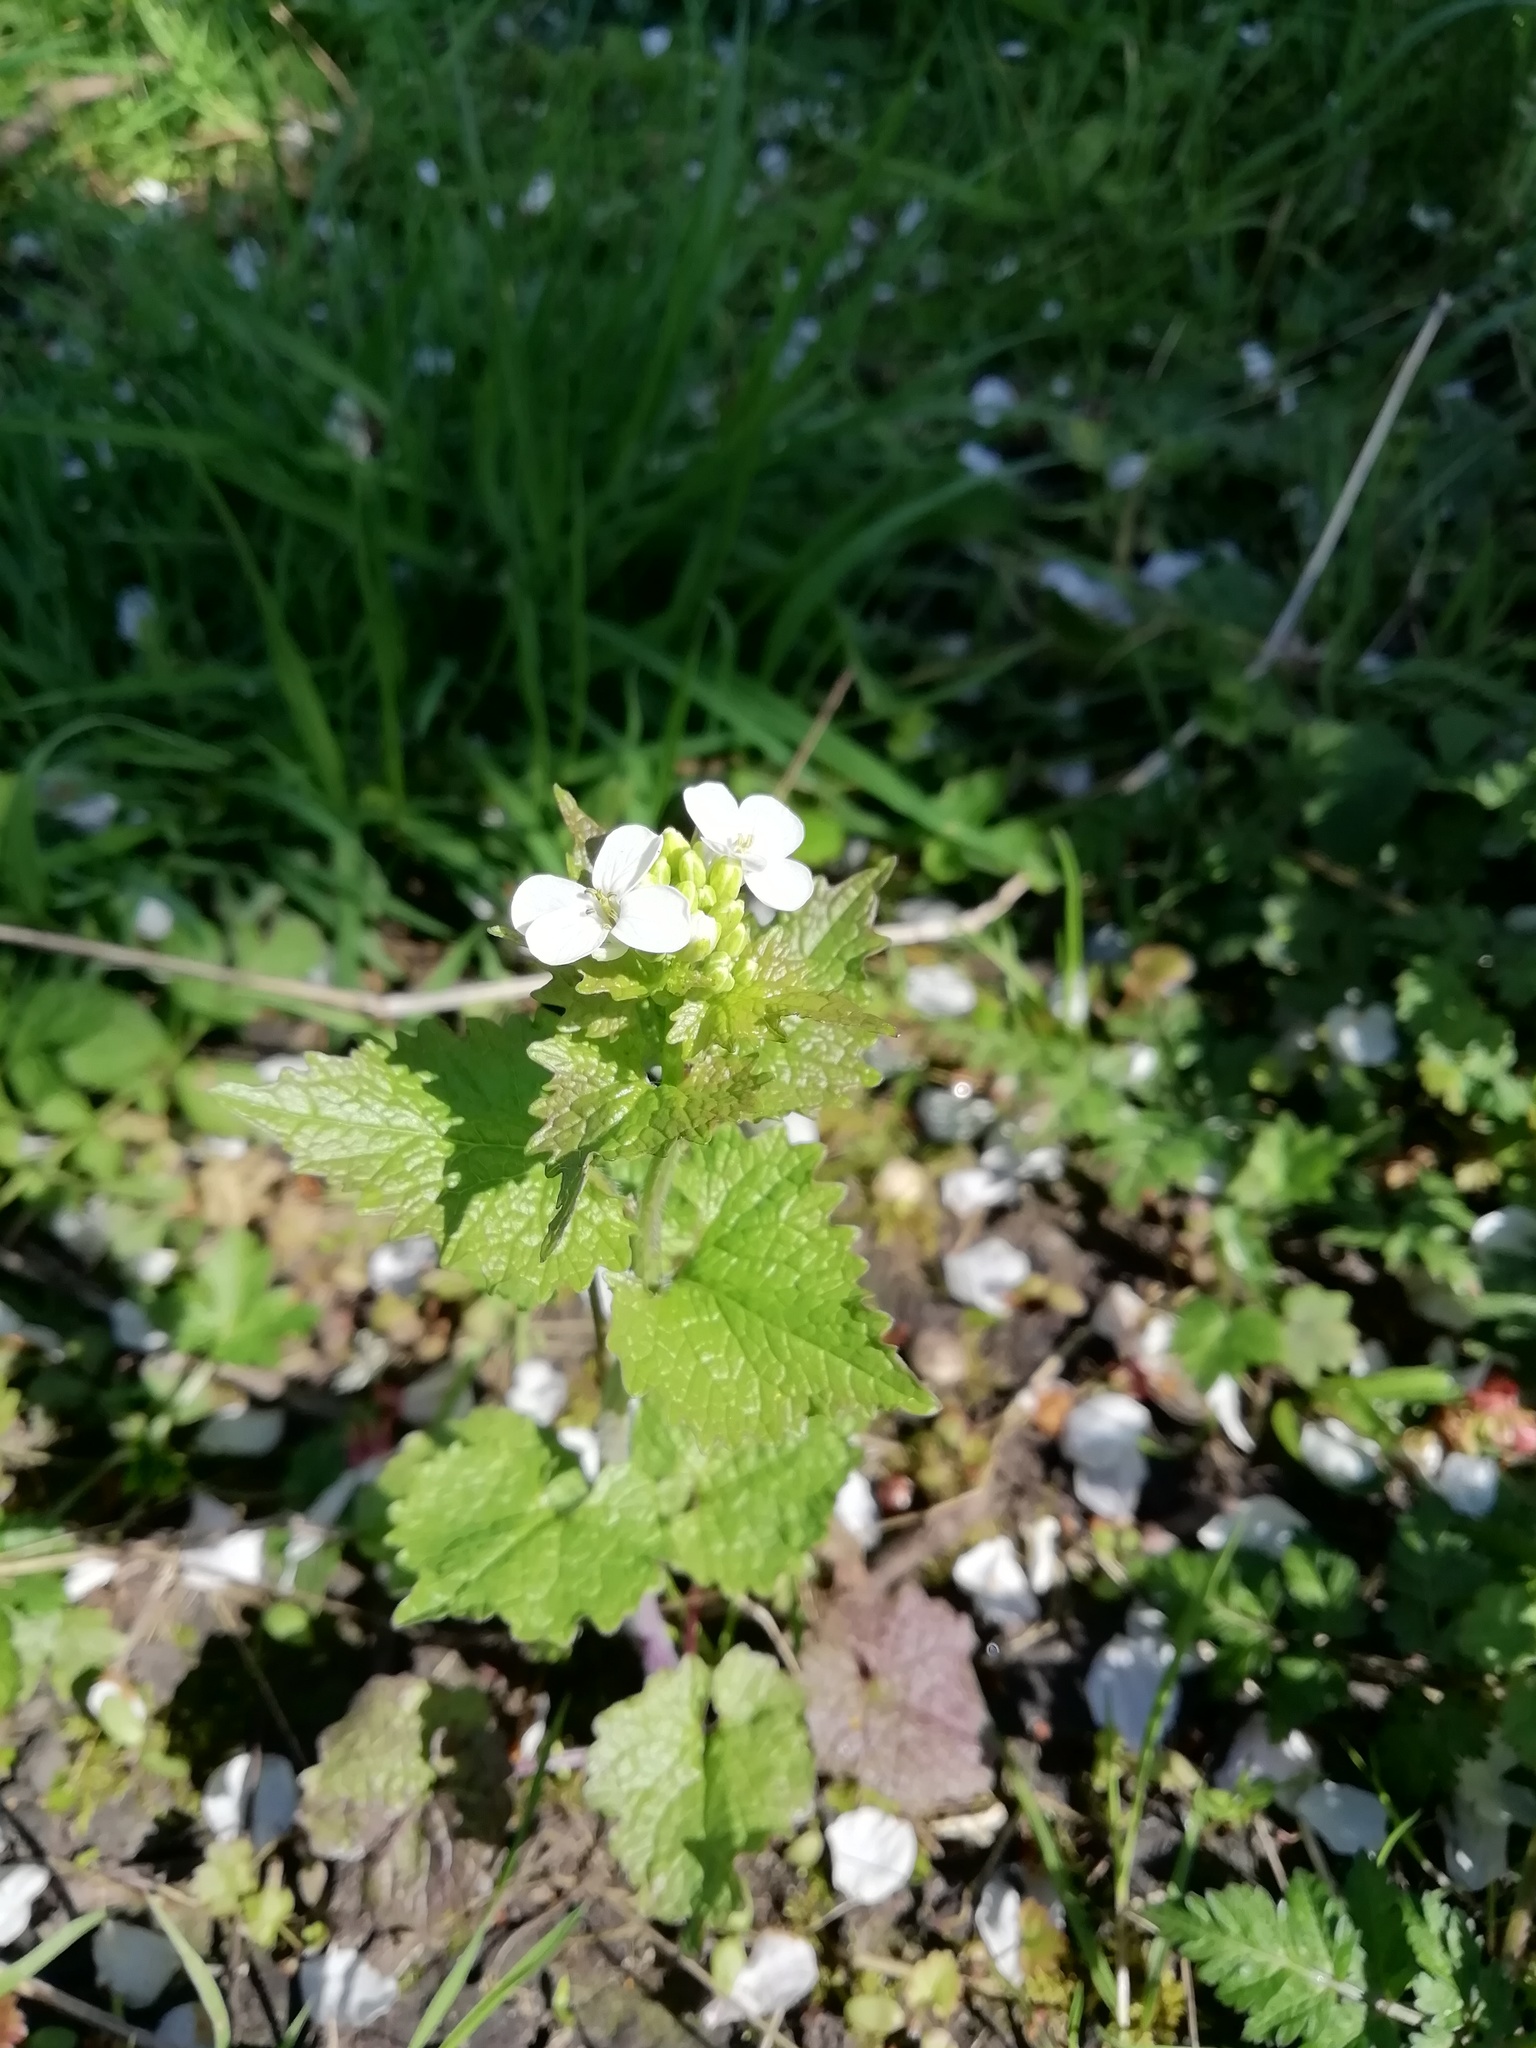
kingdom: Plantae
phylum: Tracheophyta
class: Magnoliopsida
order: Brassicales
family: Brassicaceae
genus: Alliaria
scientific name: Alliaria petiolata
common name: Garlic mustard
